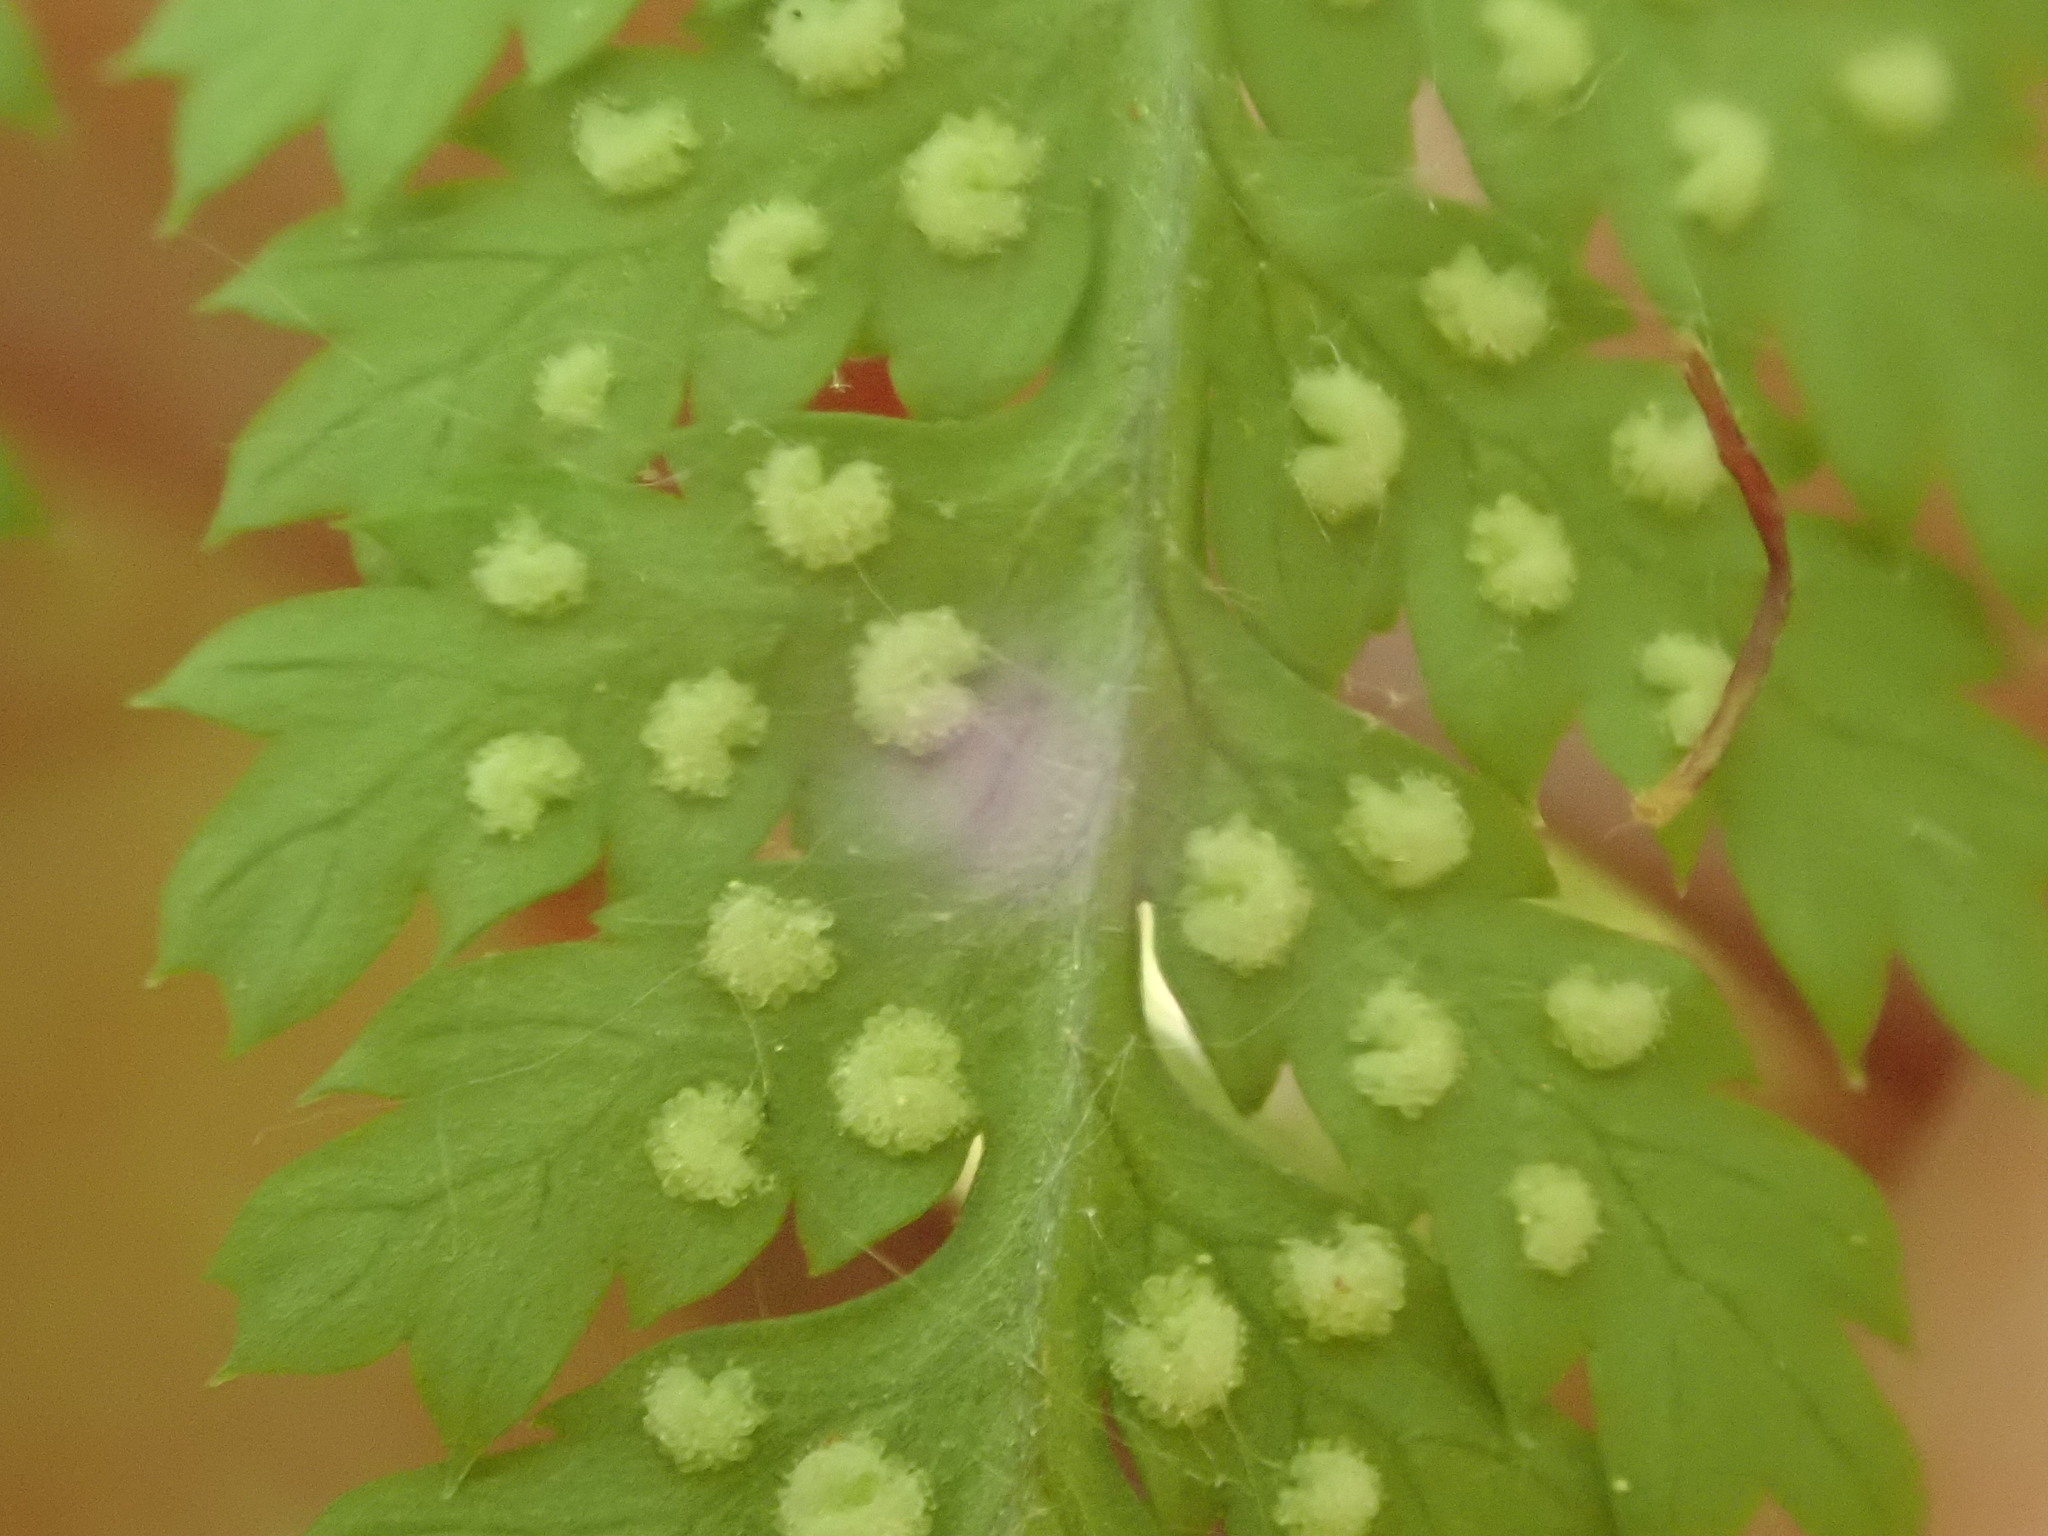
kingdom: Plantae
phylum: Tracheophyta
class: Polypodiopsida
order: Polypodiales
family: Dryopteridaceae
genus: Dryopteris
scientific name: Dryopteris intermedia
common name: Evergreen wood fern
